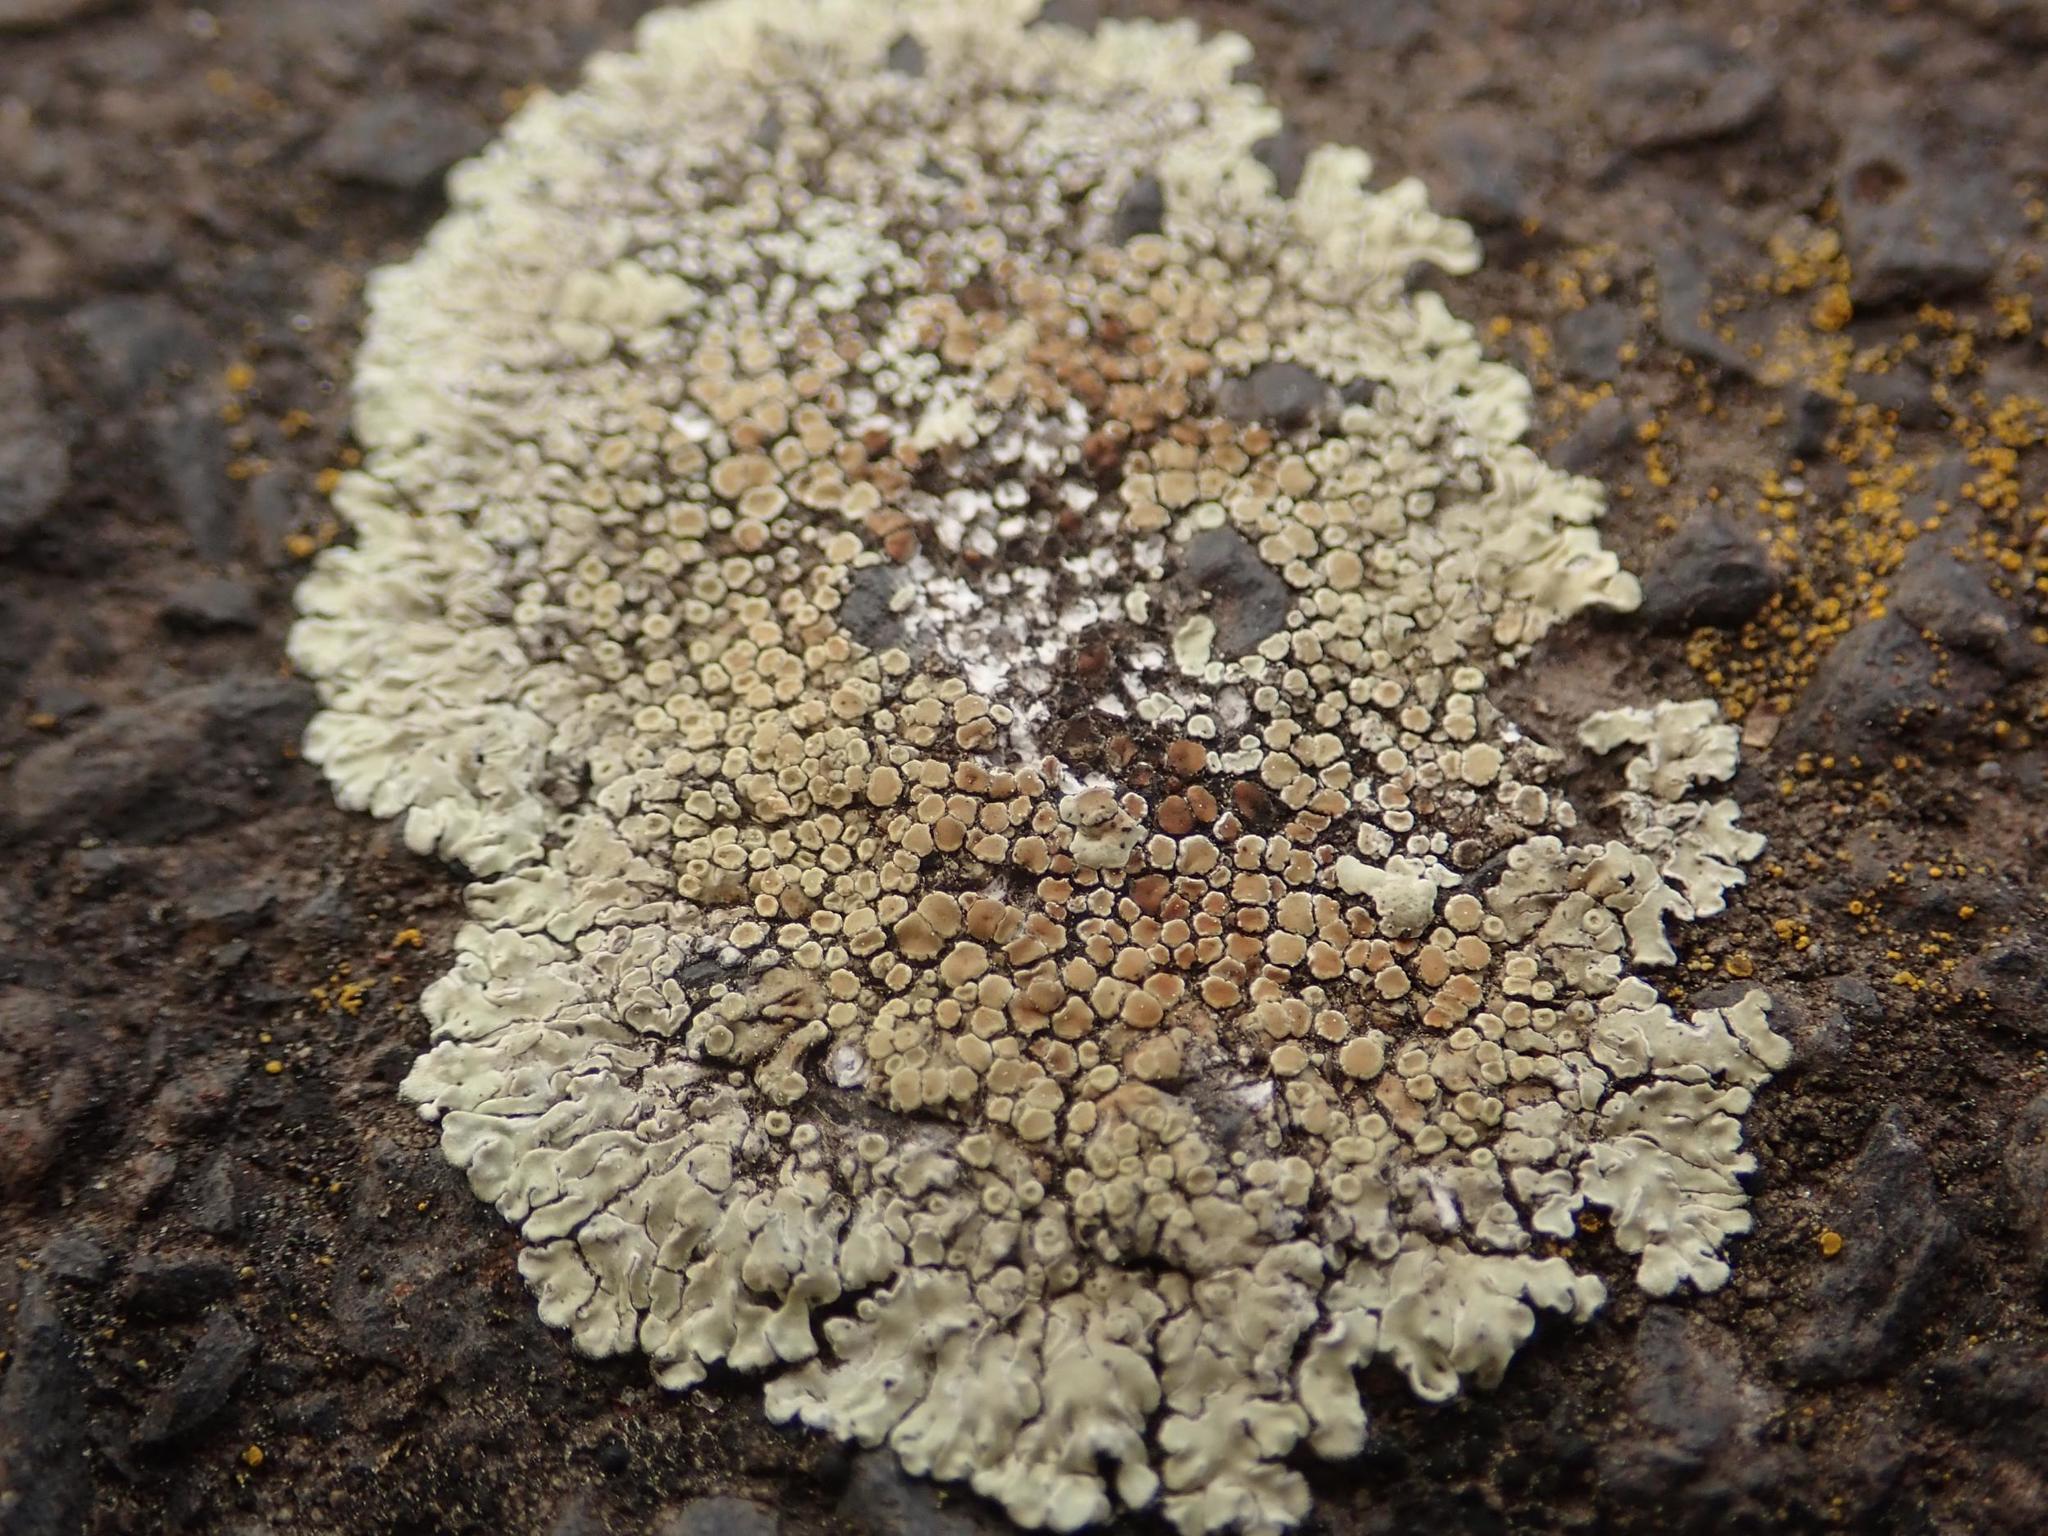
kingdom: Fungi
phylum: Ascomycota
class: Lecanoromycetes
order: Lecanorales
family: Lecanoraceae
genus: Protoparmeliopsis
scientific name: Protoparmeliopsis muralis
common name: Stonewall rim lichen
